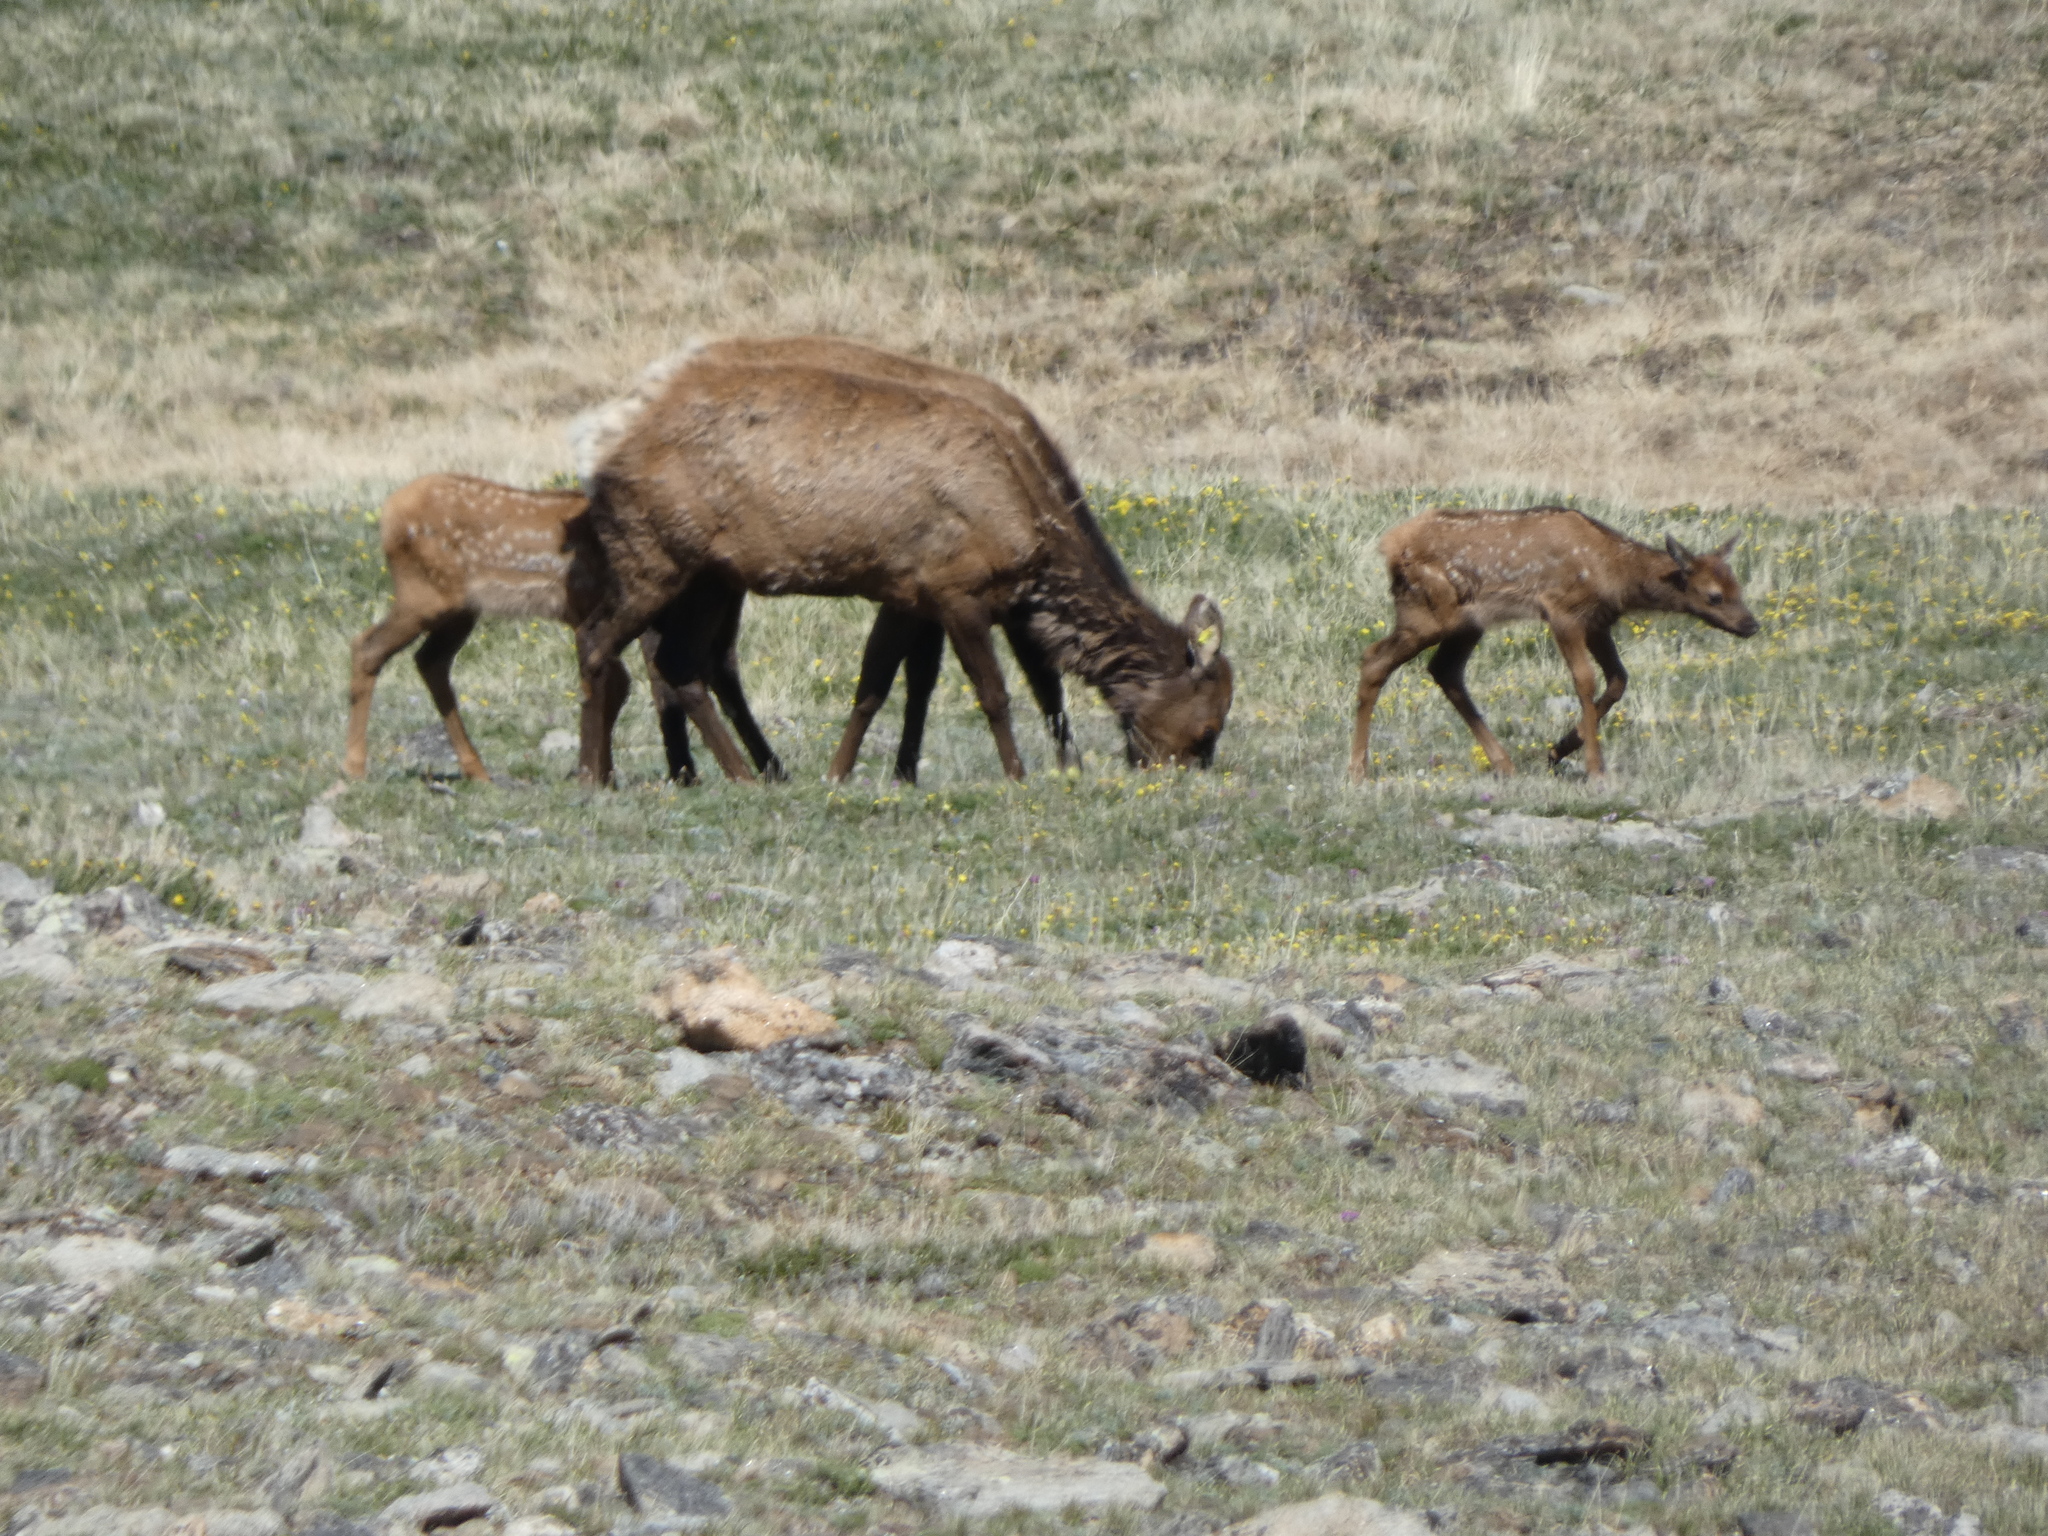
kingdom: Animalia
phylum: Chordata
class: Mammalia
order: Artiodactyla
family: Cervidae
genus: Cervus
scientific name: Cervus elaphus
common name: Red deer
